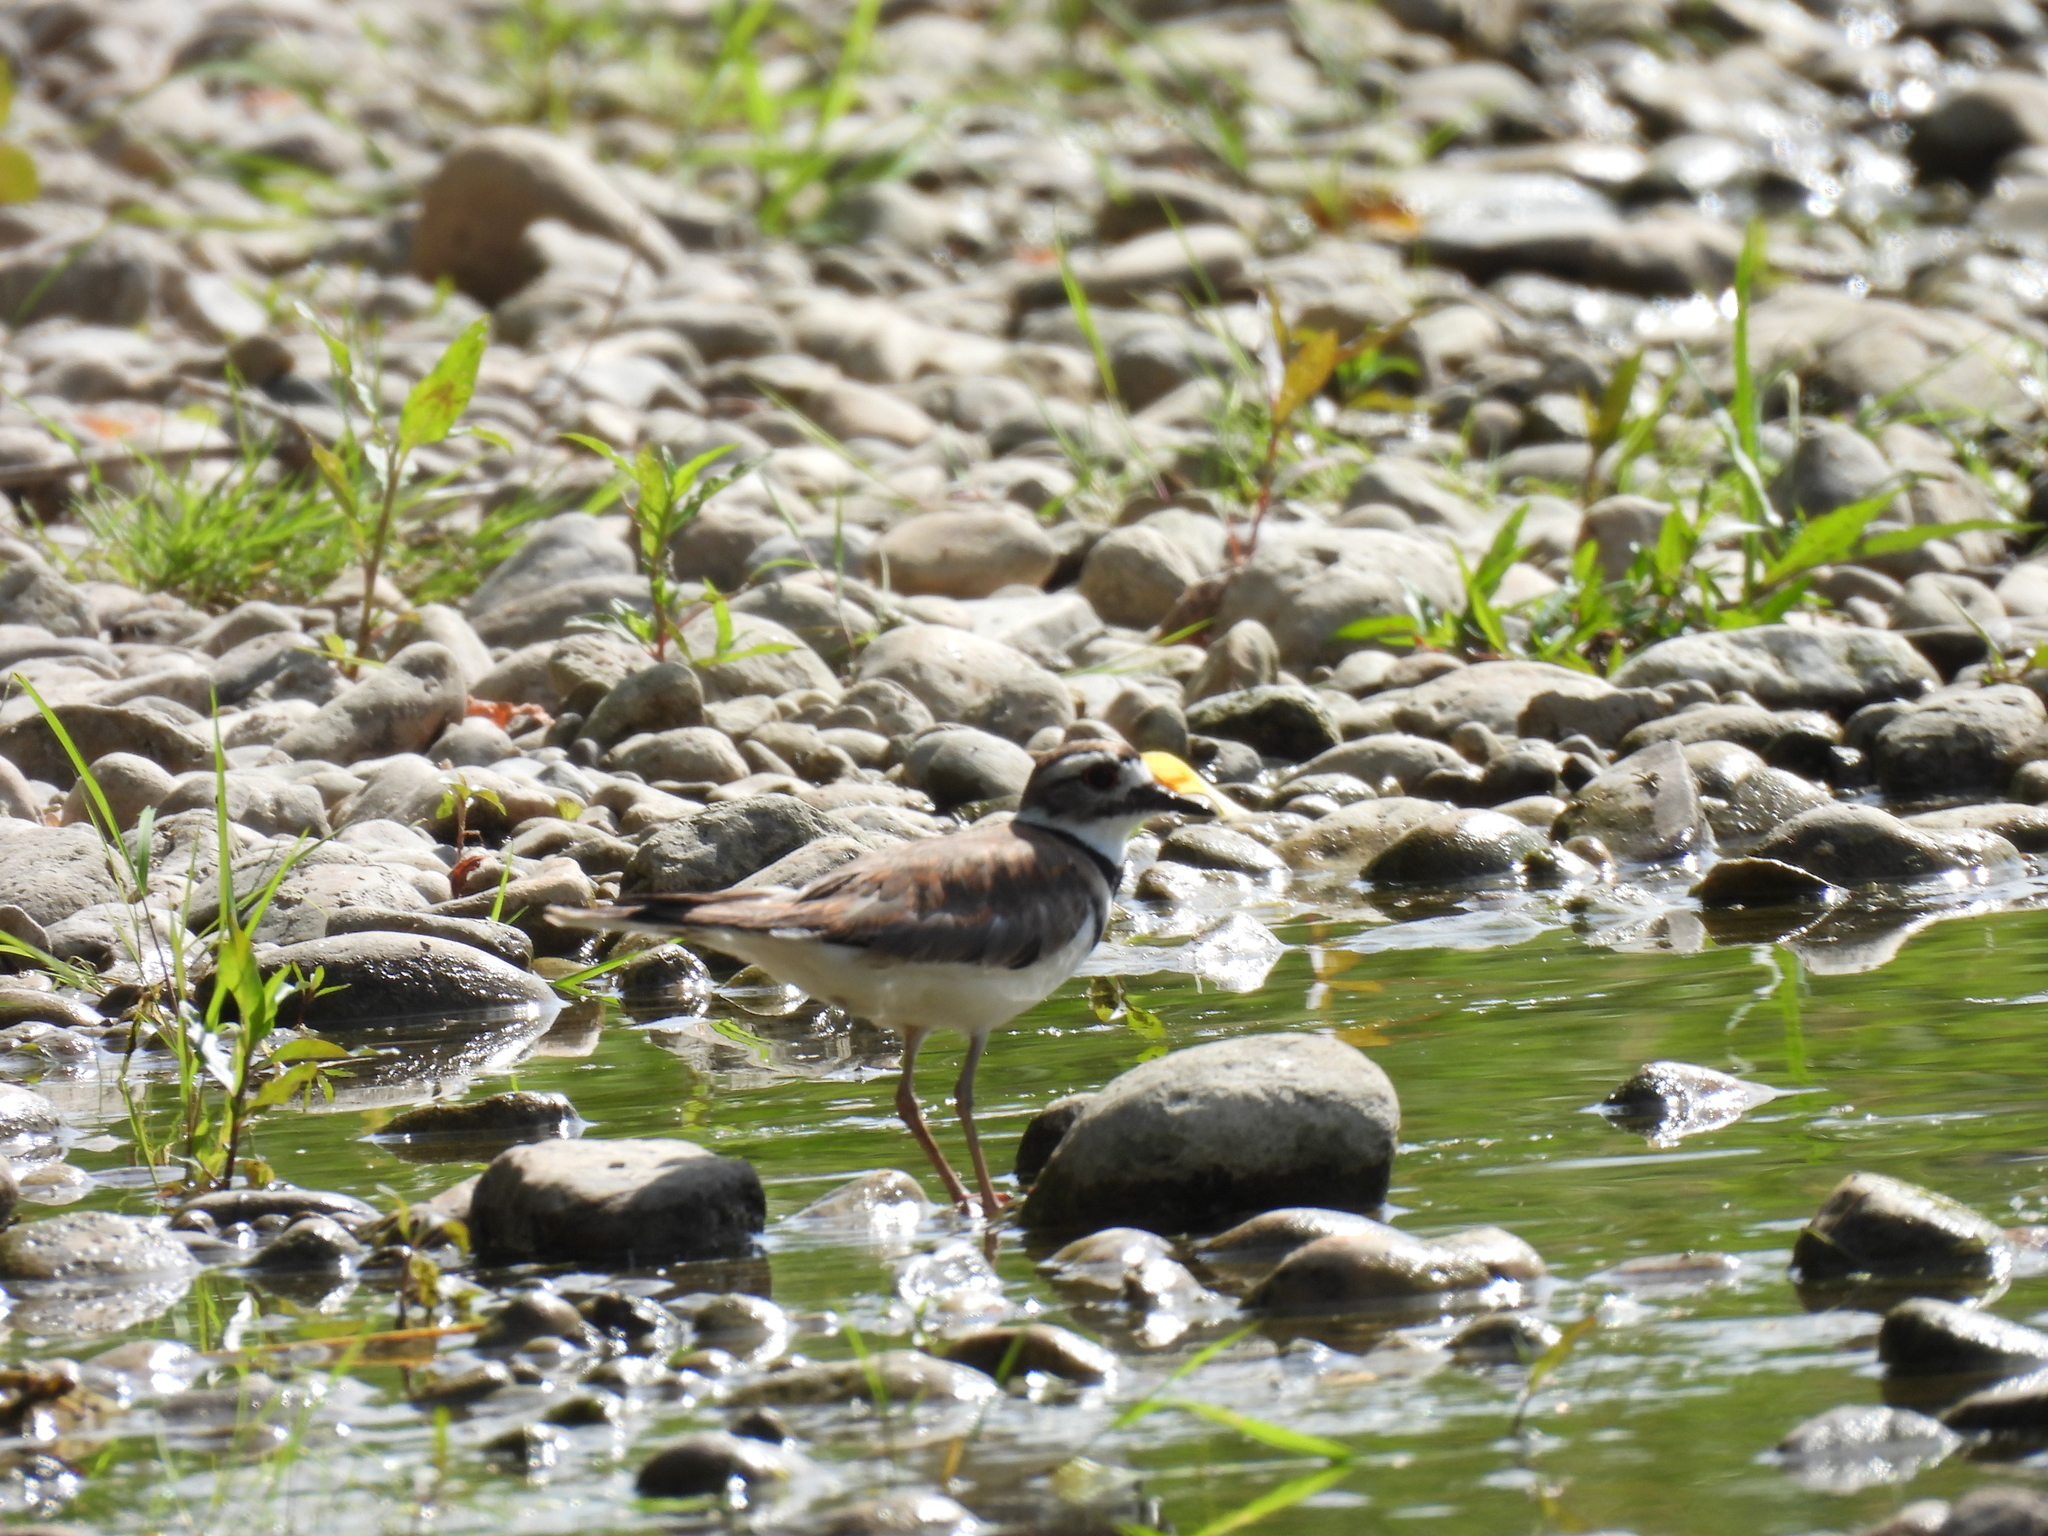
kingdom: Animalia
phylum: Chordata
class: Aves
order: Charadriiformes
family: Charadriidae
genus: Charadrius
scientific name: Charadrius vociferus
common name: Killdeer
